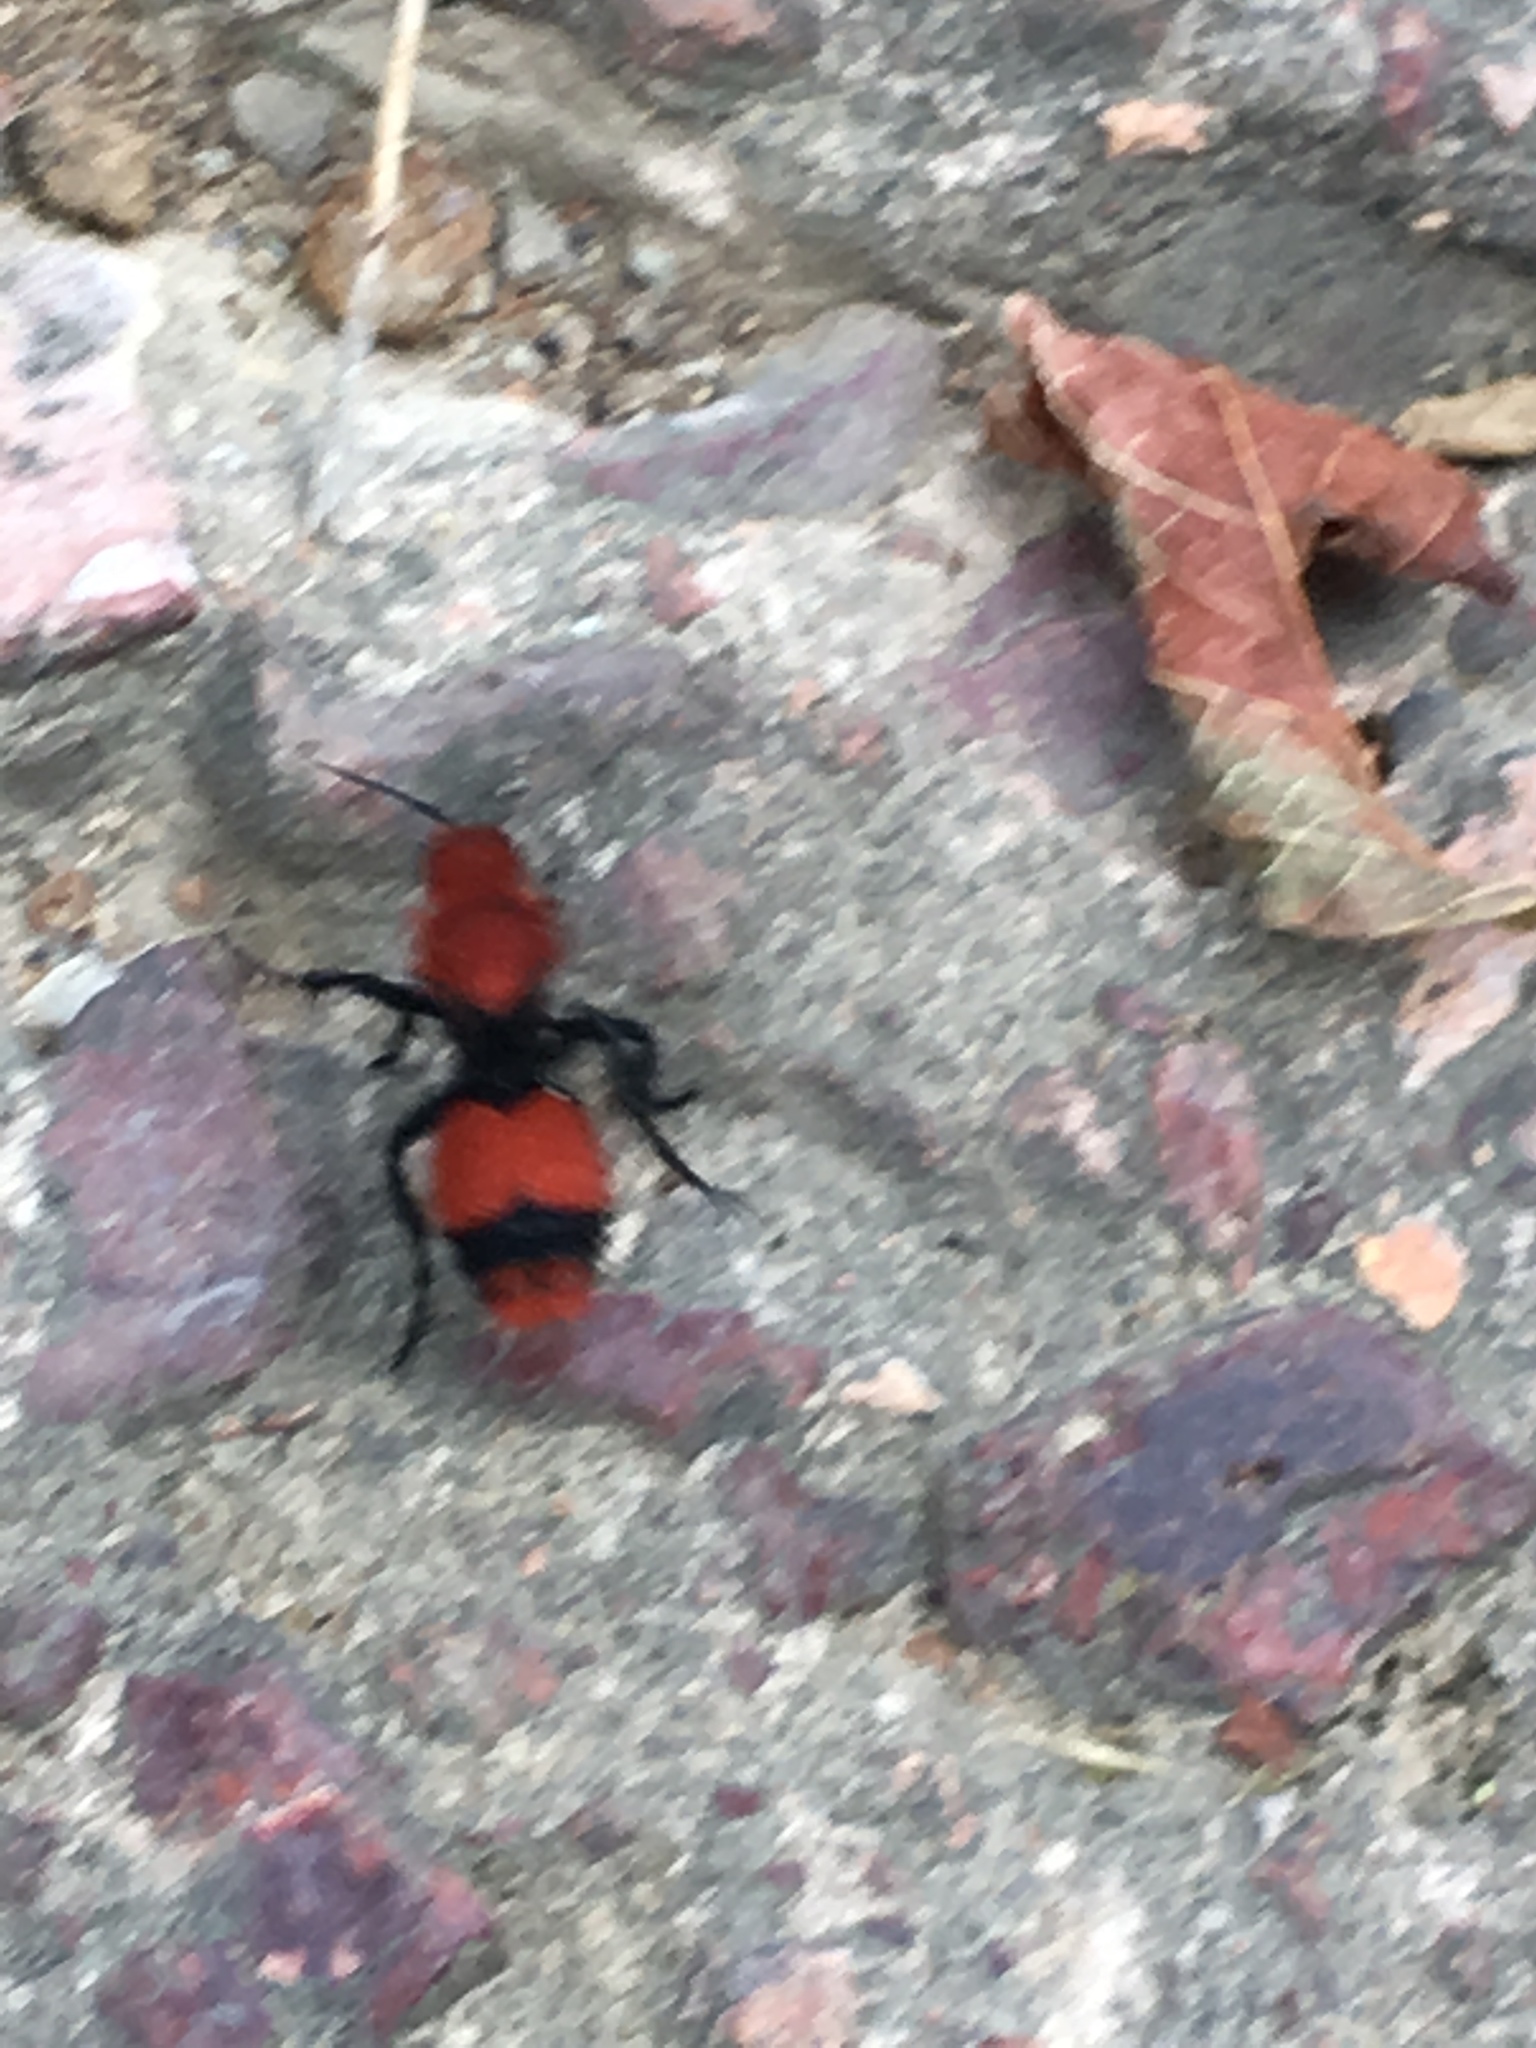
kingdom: Animalia
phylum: Arthropoda
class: Insecta
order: Hymenoptera
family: Mutillidae
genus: Dasymutilla
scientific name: Dasymutilla occidentalis
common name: Common eastern velvet ant
